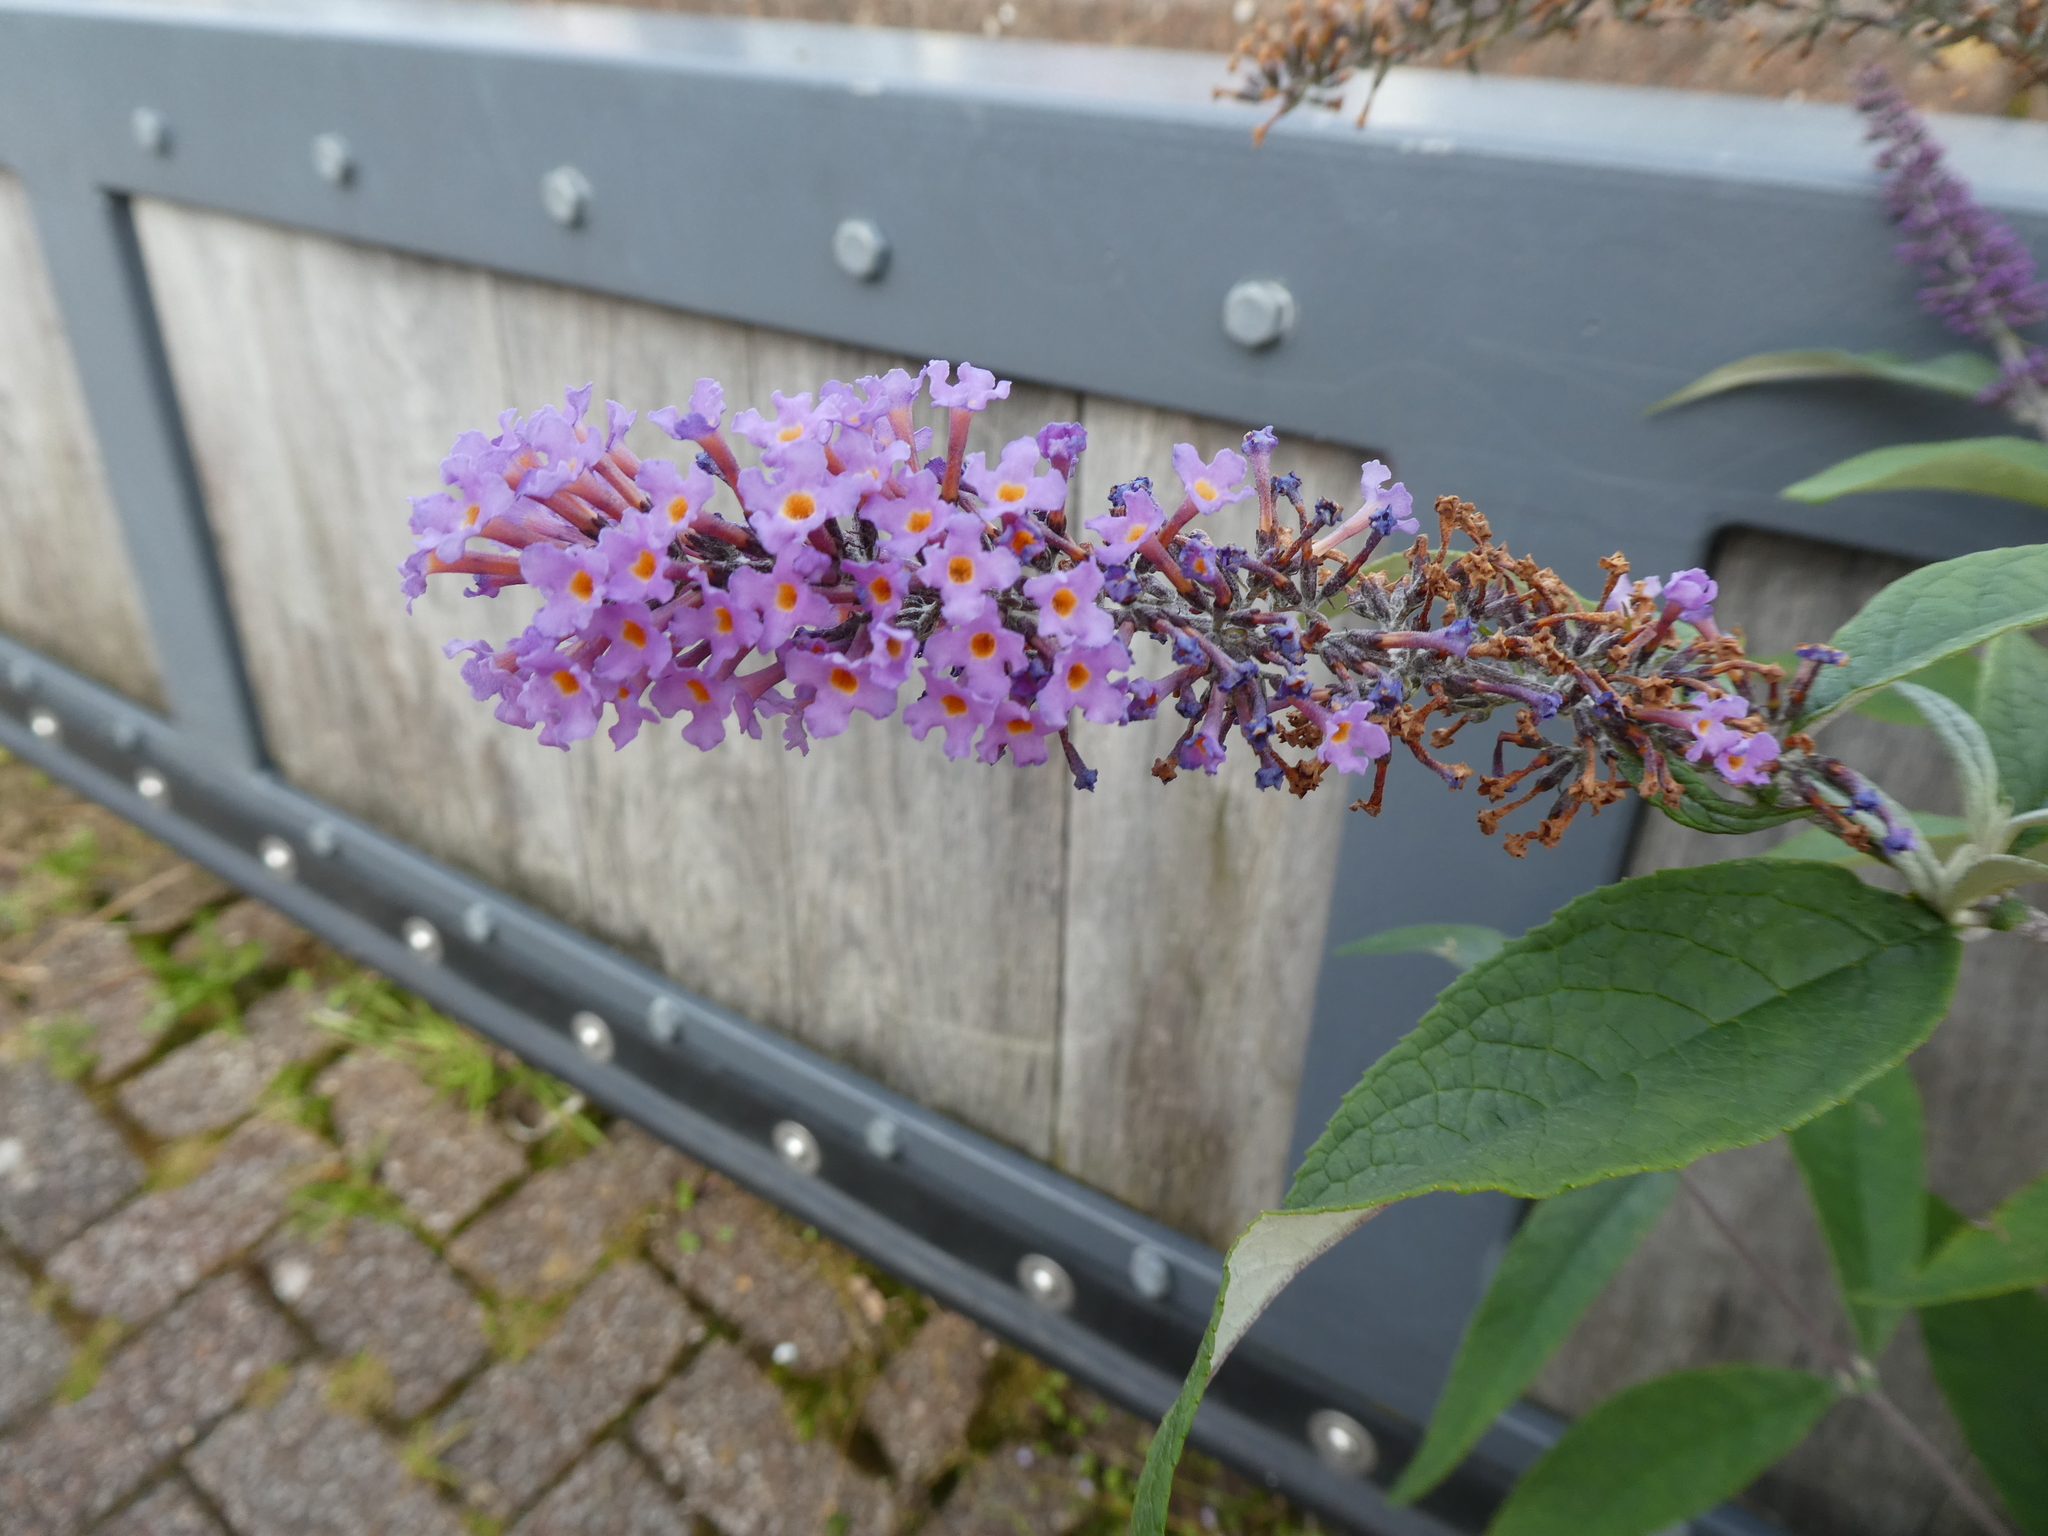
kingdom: Plantae
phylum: Tracheophyta
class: Magnoliopsida
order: Lamiales
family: Scrophulariaceae
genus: Buddleja
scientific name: Buddleja davidii
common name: Butterfly-bush
